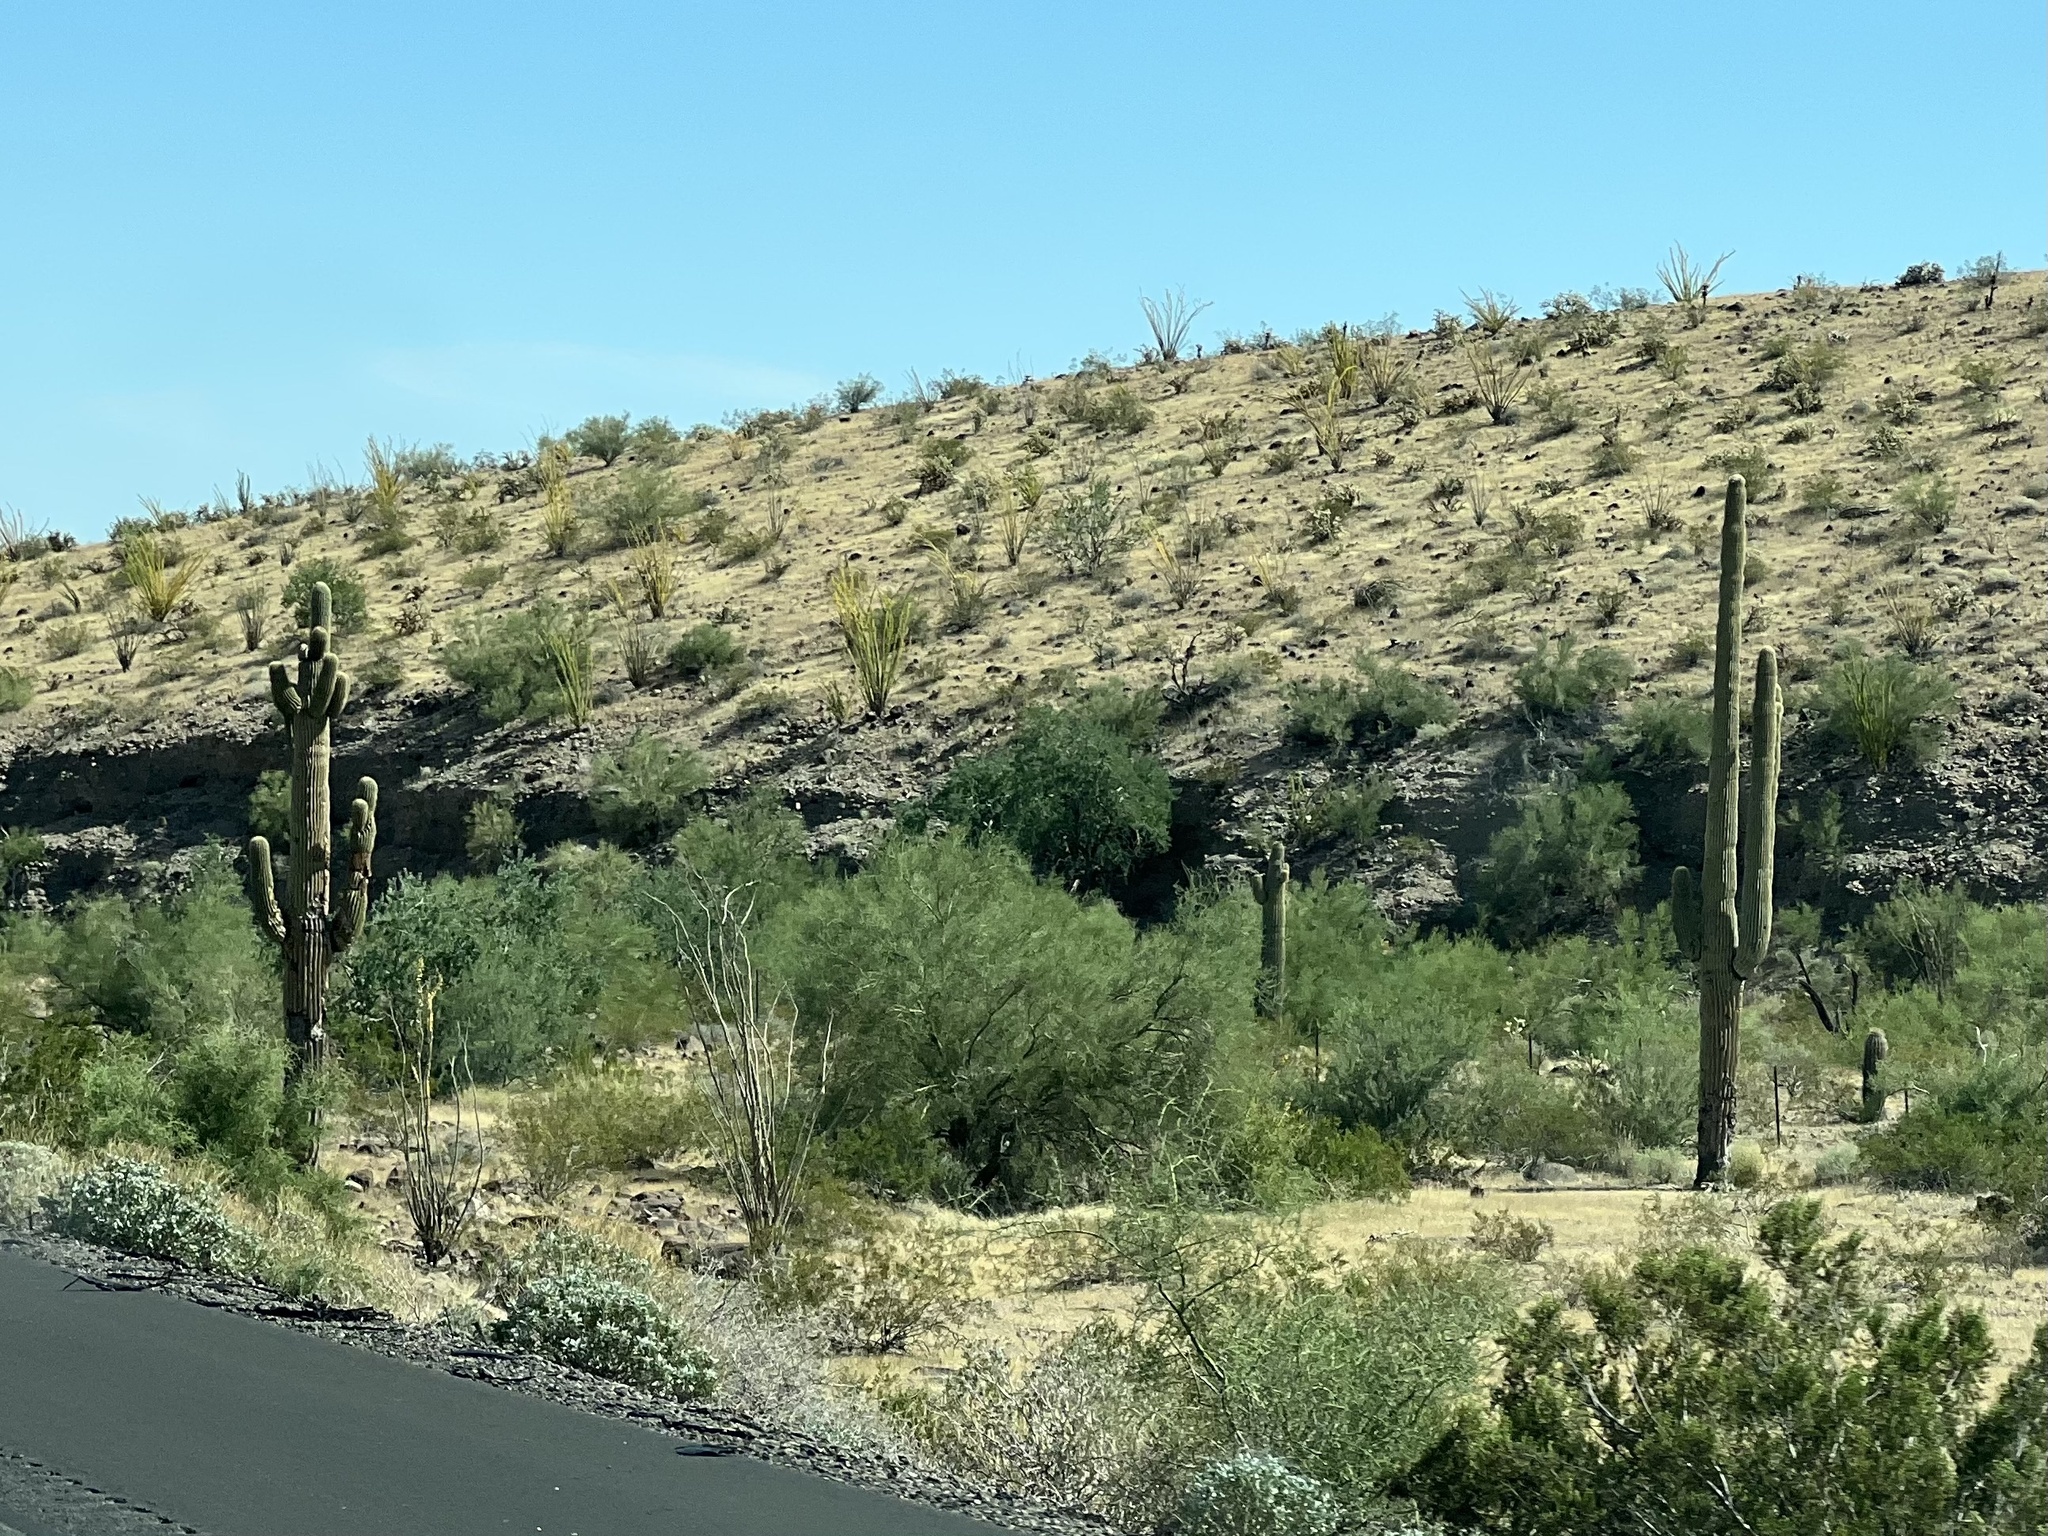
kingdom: Plantae
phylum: Tracheophyta
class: Magnoliopsida
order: Caryophyllales
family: Cactaceae
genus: Carnegiea
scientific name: Carnegiea gigantea
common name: Saguaro
